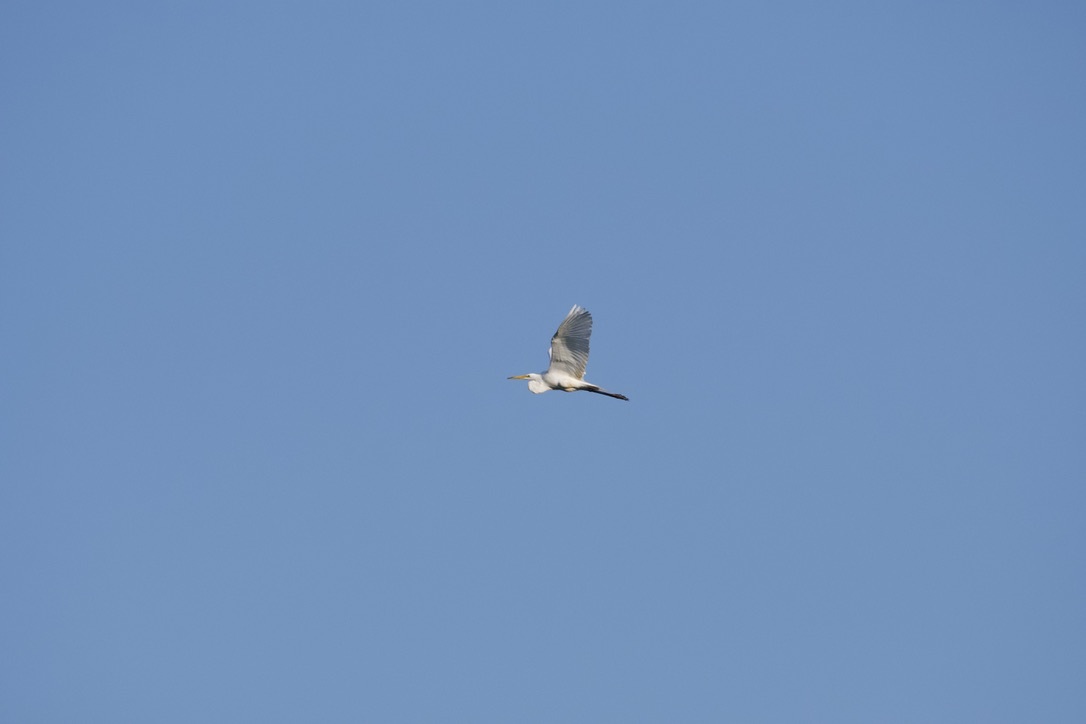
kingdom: Animalia
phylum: Chordata
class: Aves
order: Pelecaniformes
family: Ardeidae
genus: Ardea
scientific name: Ardea alba
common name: Great egret
